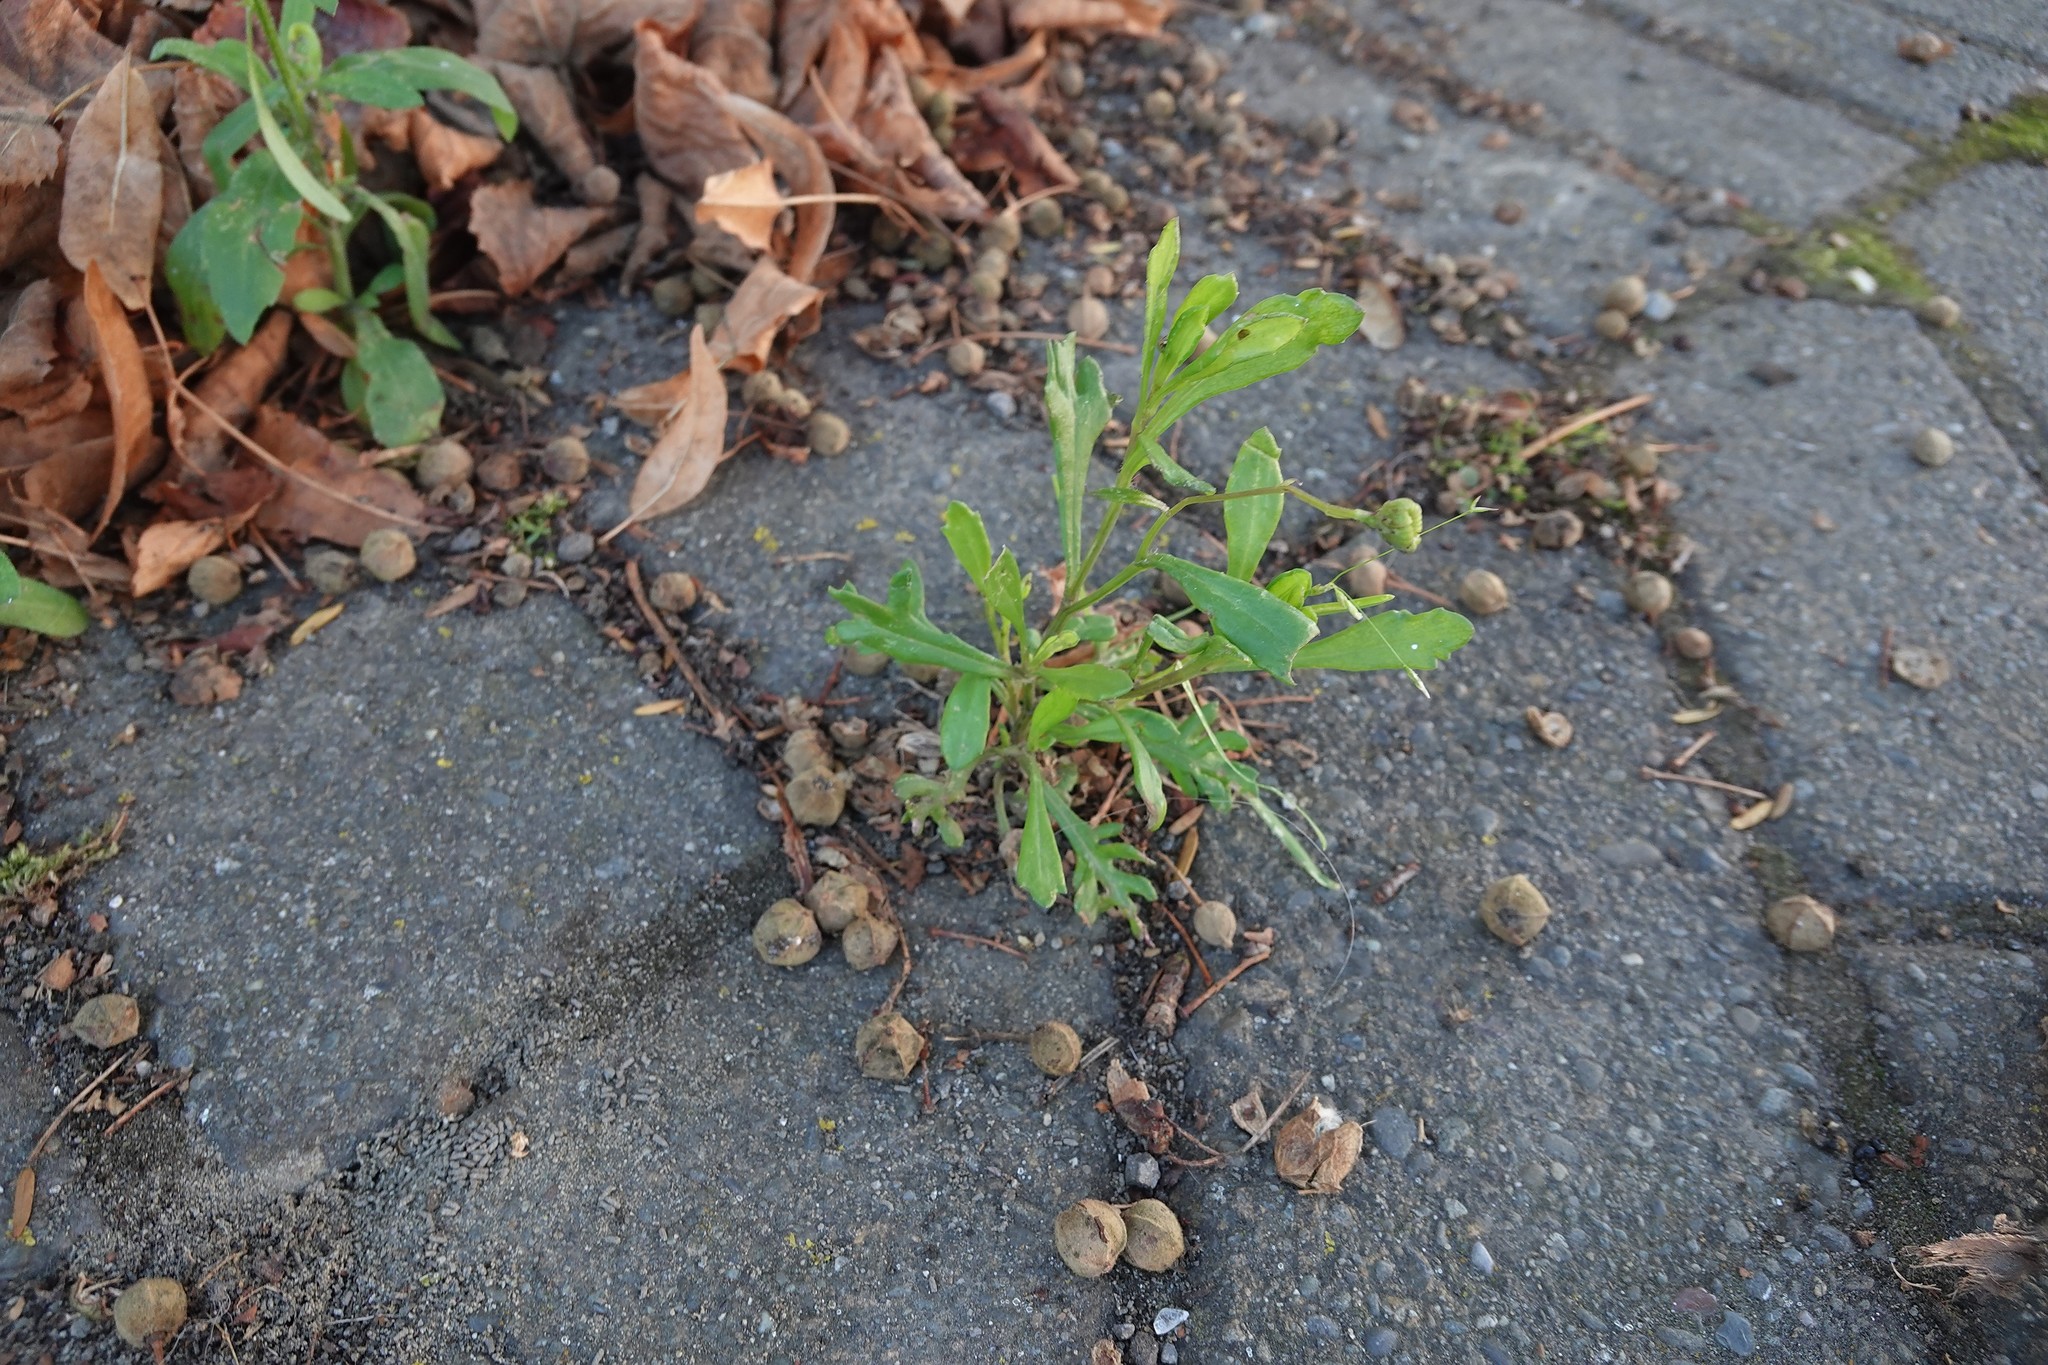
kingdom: Plantae
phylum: Tracheophyta
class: Magnoliopsida
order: Asterales
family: Asteraceae
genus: Senecio
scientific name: Senecio skirrhodon
